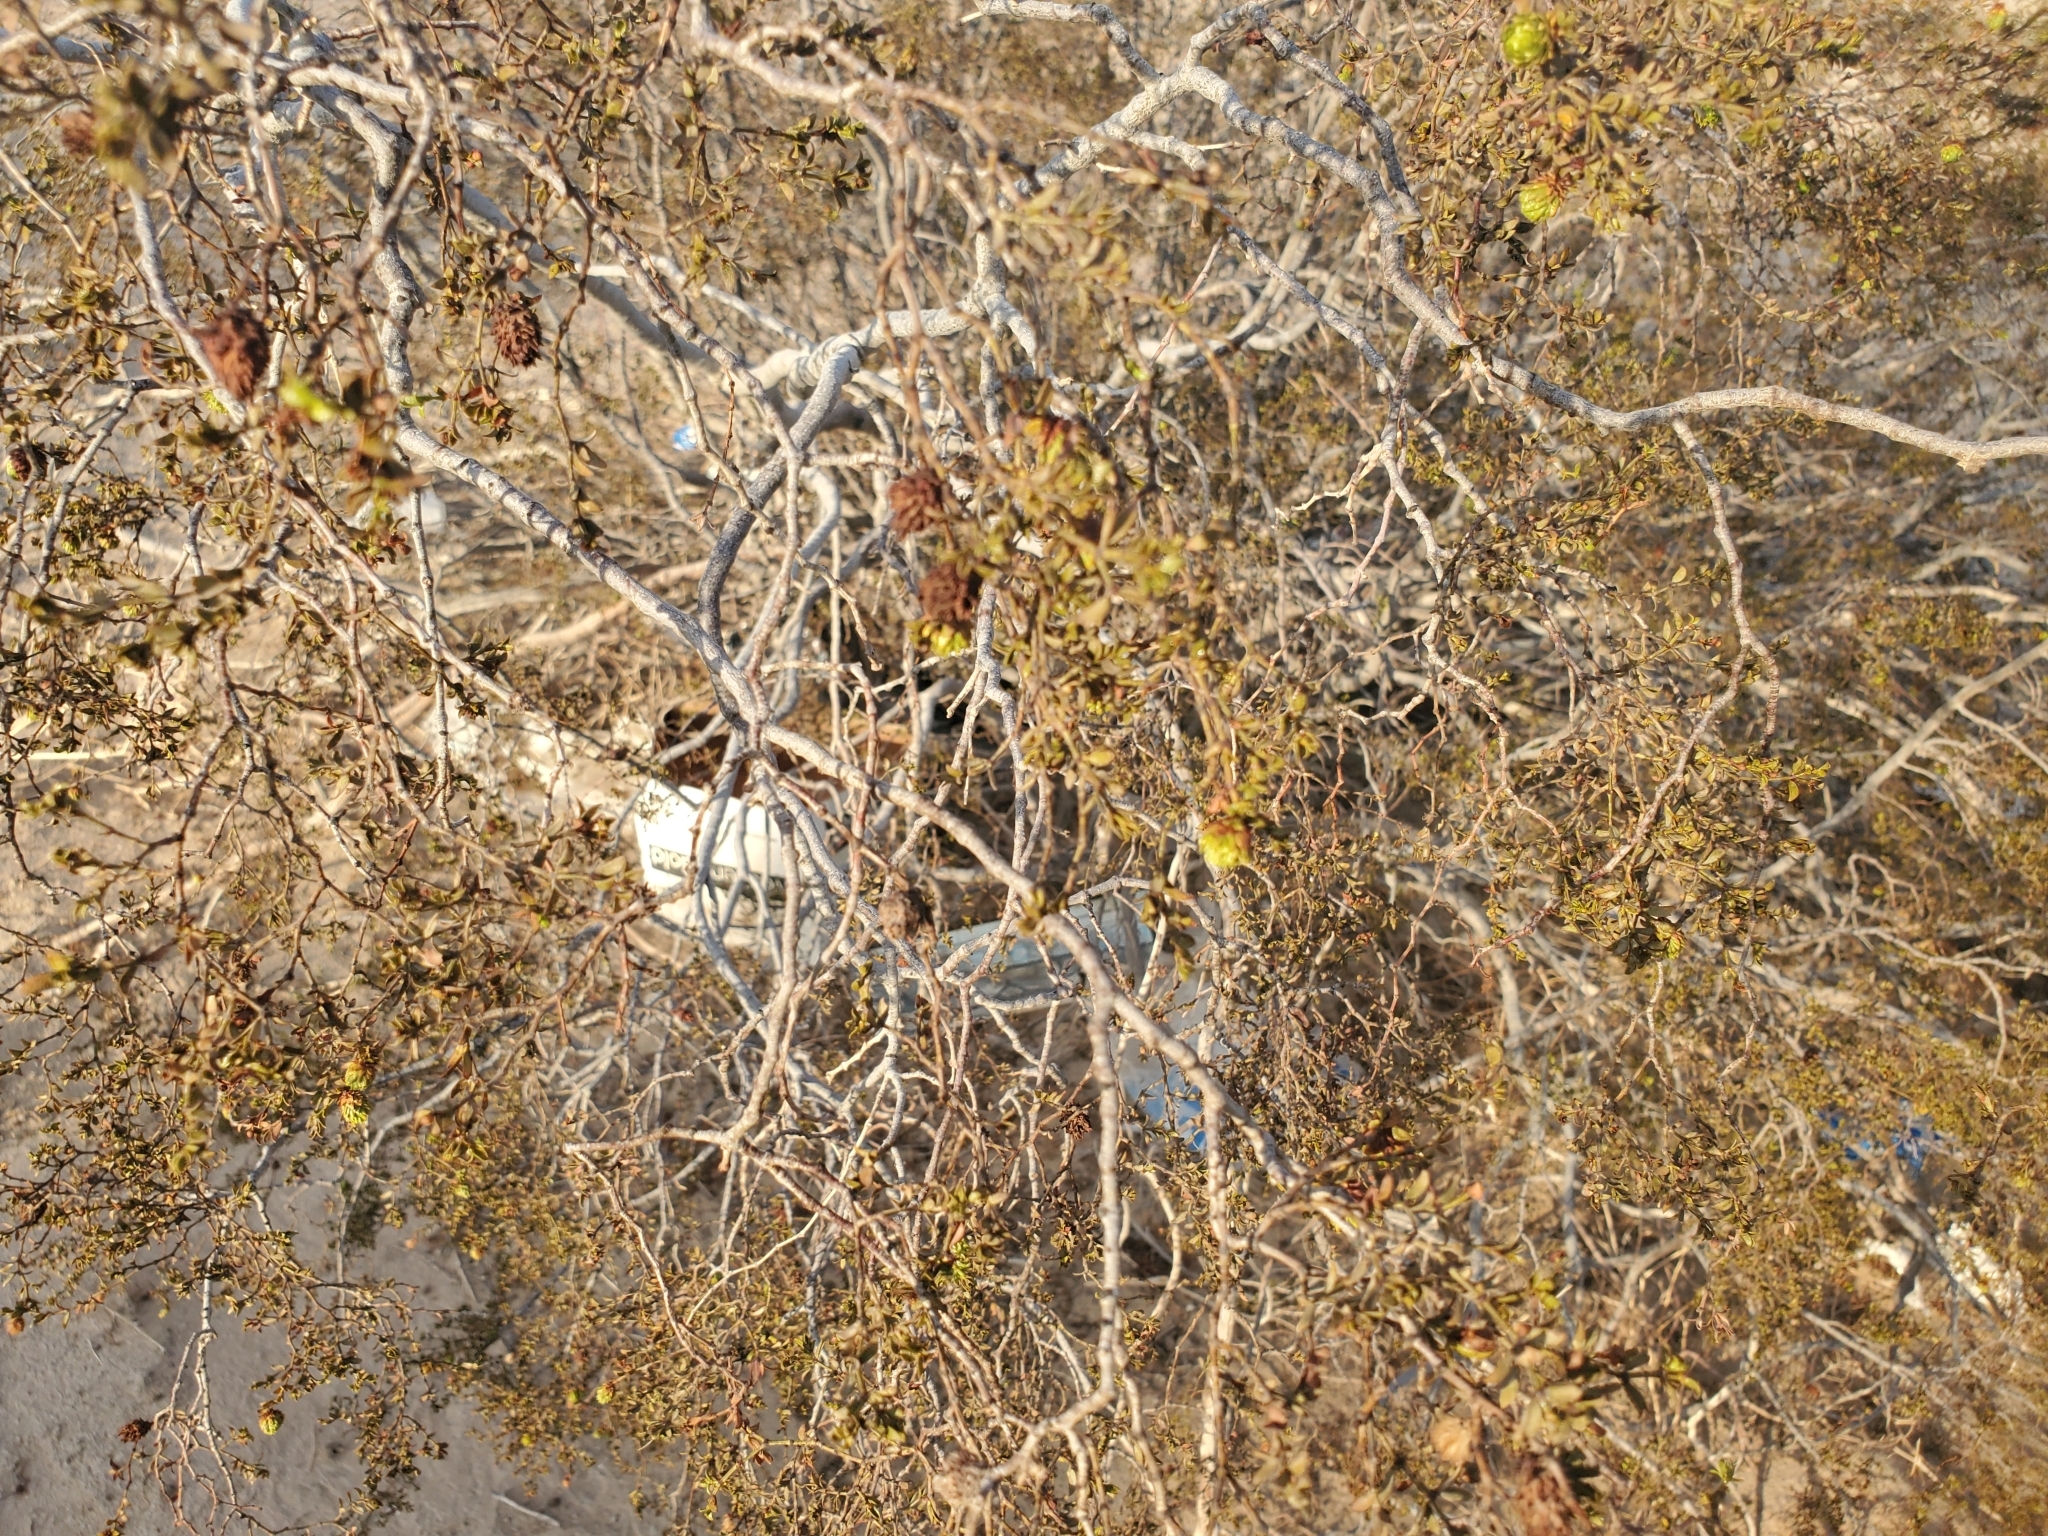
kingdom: Plantae
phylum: Tracheophyta
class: Magnoliopsida
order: Zygophyllales
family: Zygophyllaceae
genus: Larrea
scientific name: Larrea tridentata
